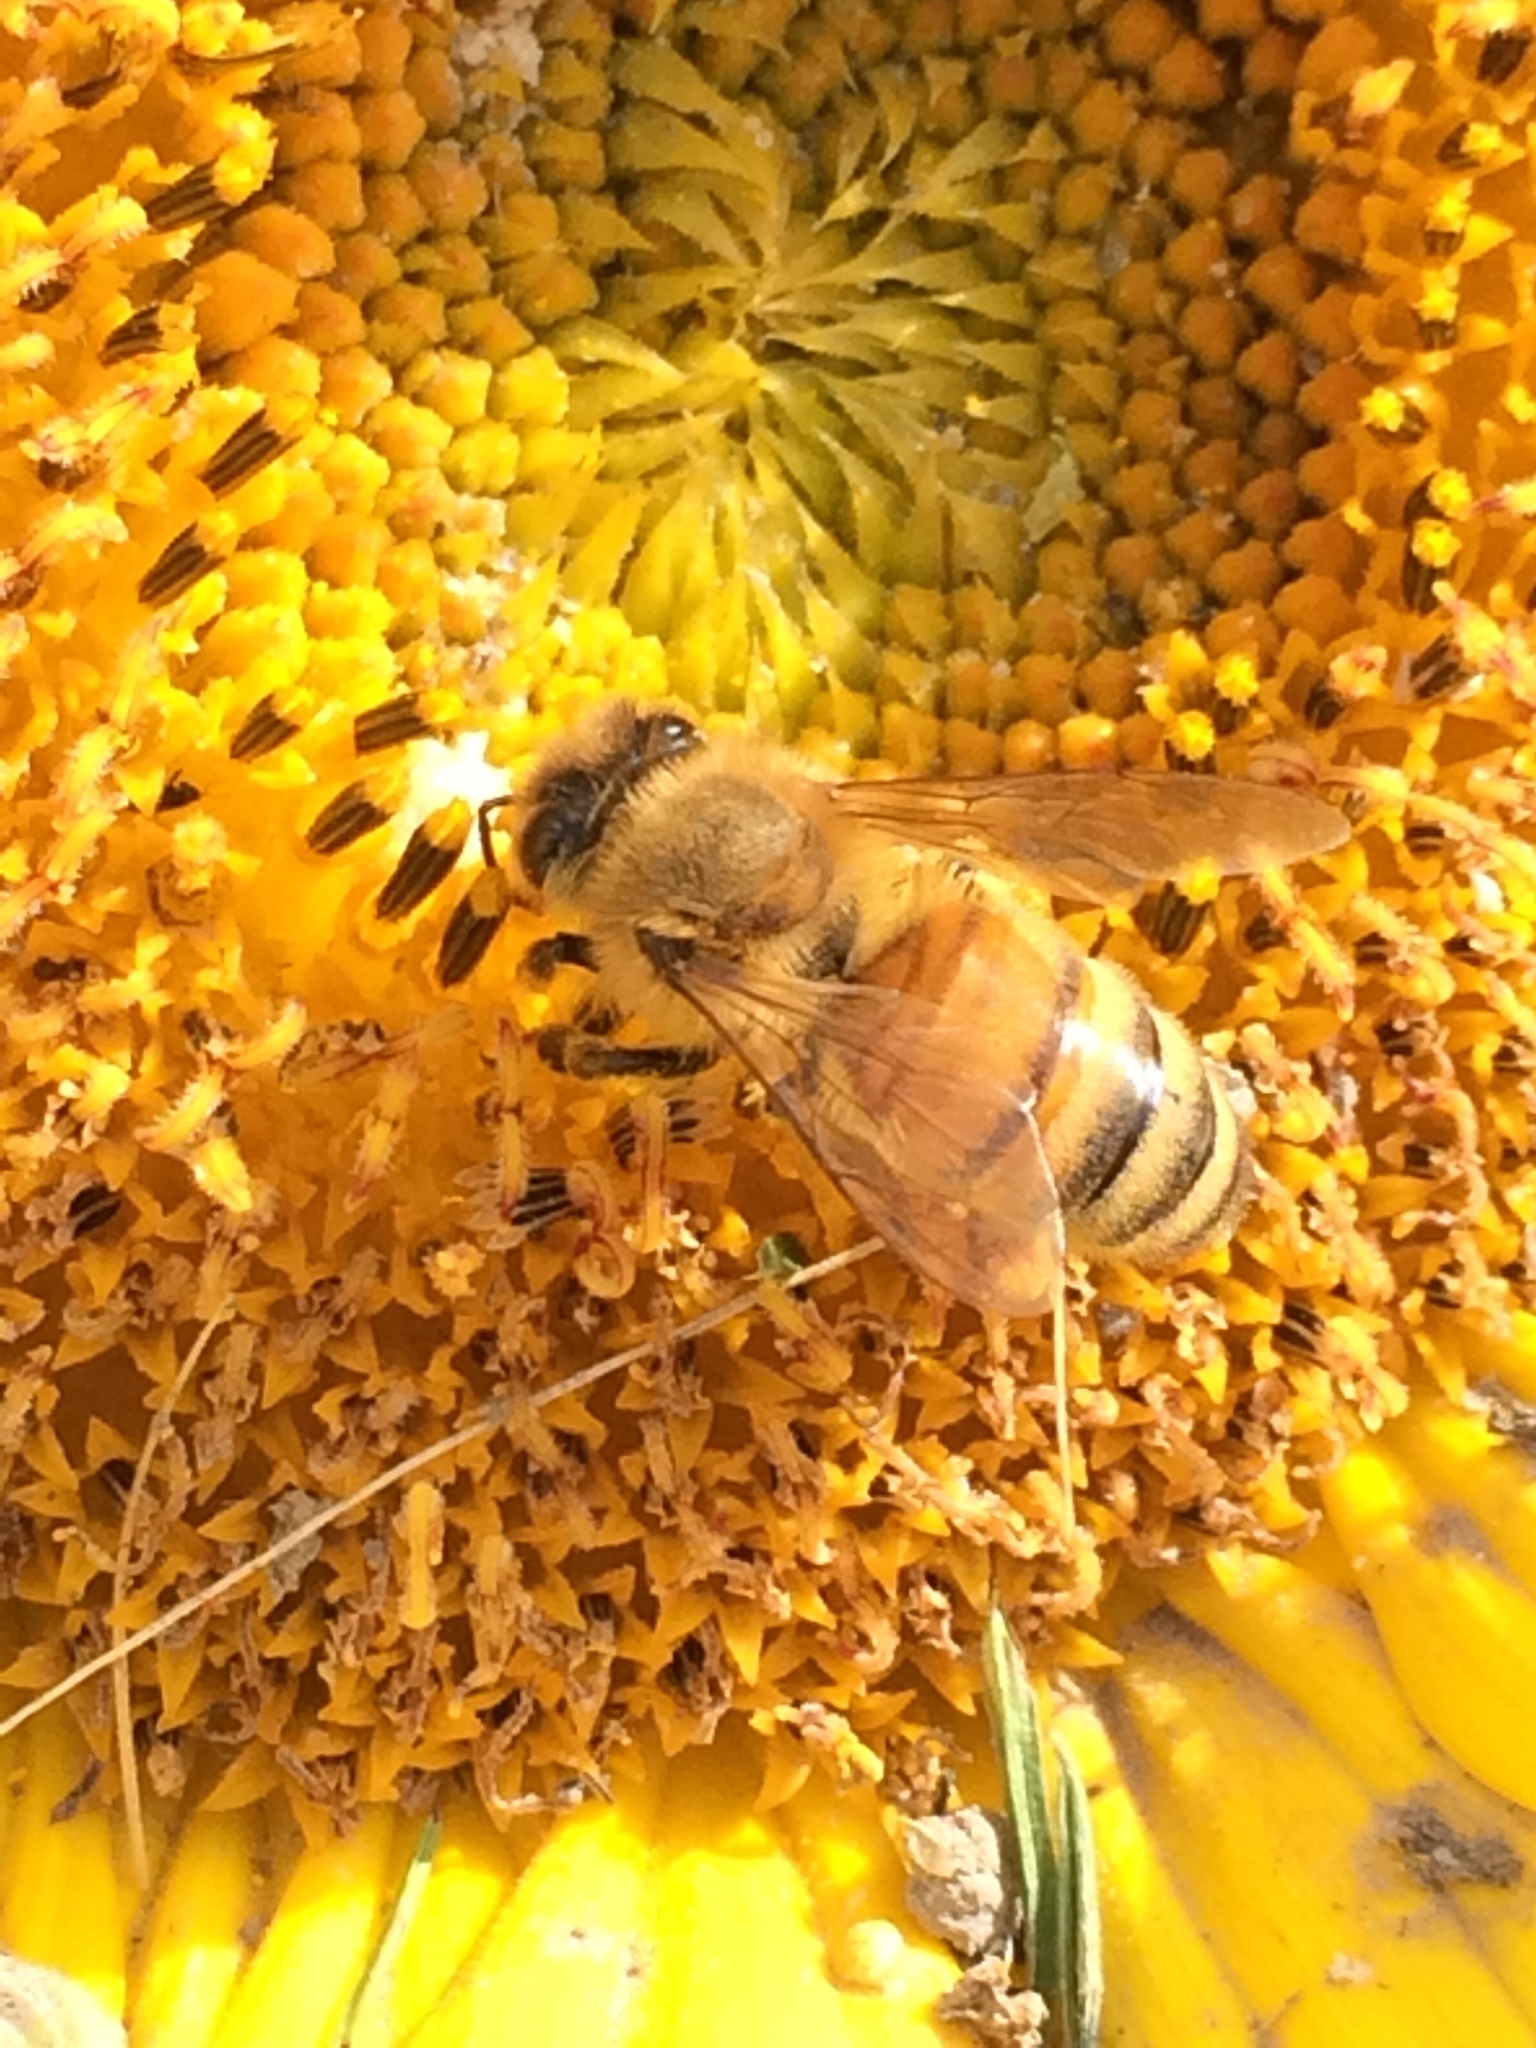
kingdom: Animalia
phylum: Arthropoda
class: Insecta
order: Hymenoptera
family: Apidae
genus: Apis
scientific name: Apis mellifera
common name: Honey bee
